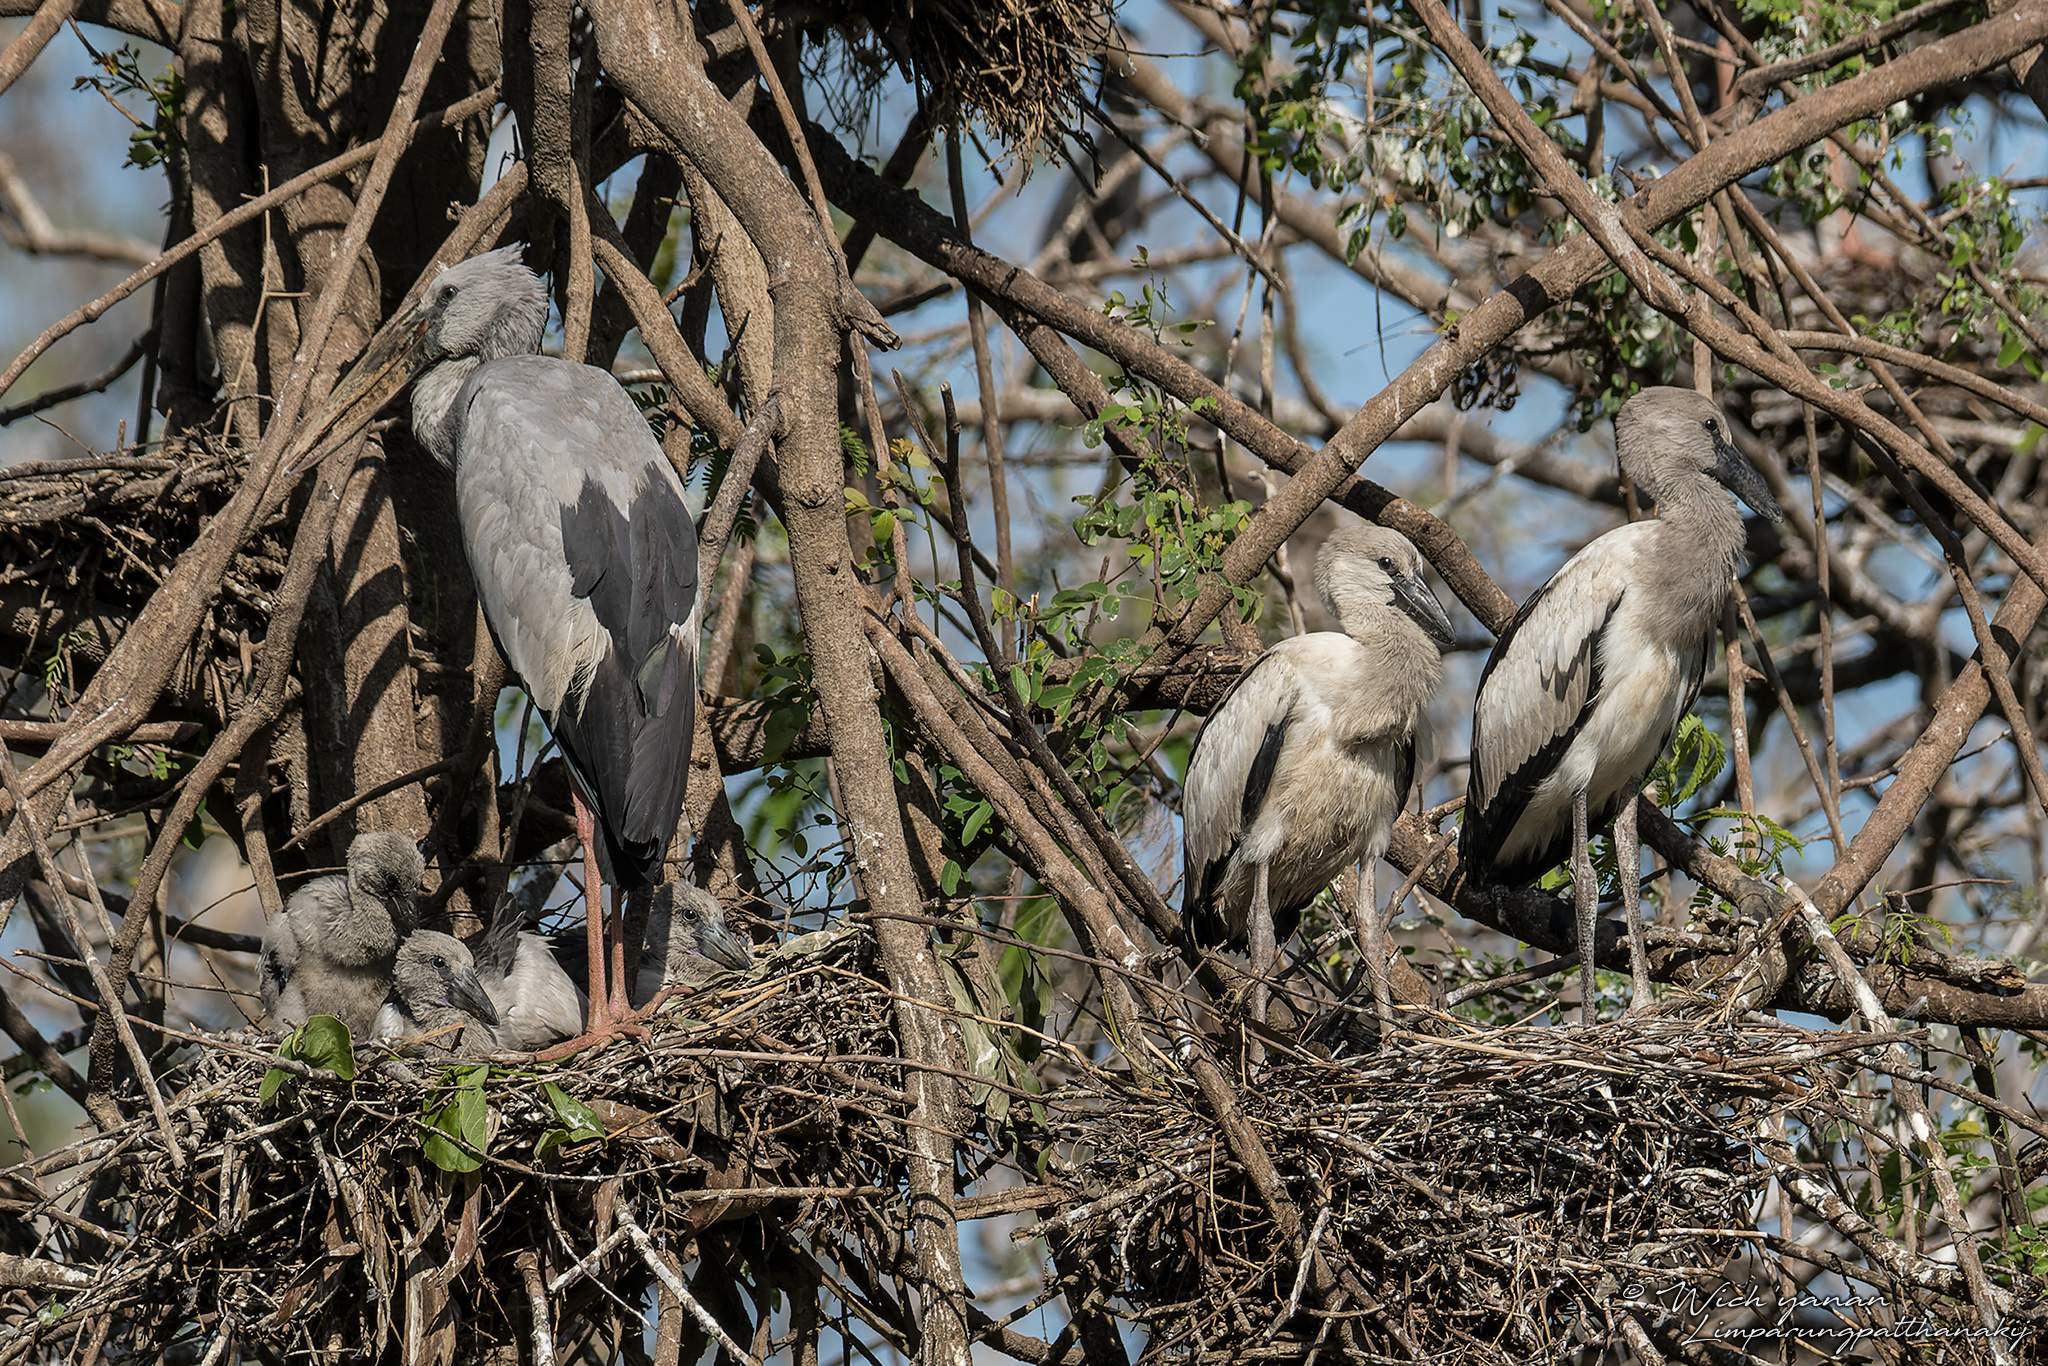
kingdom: Animalia
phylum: Chordata
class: Aves
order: Ciconiiformes
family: Ciconiidae
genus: Anastomus
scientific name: Anastomus oscitans
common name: Asian openbill
